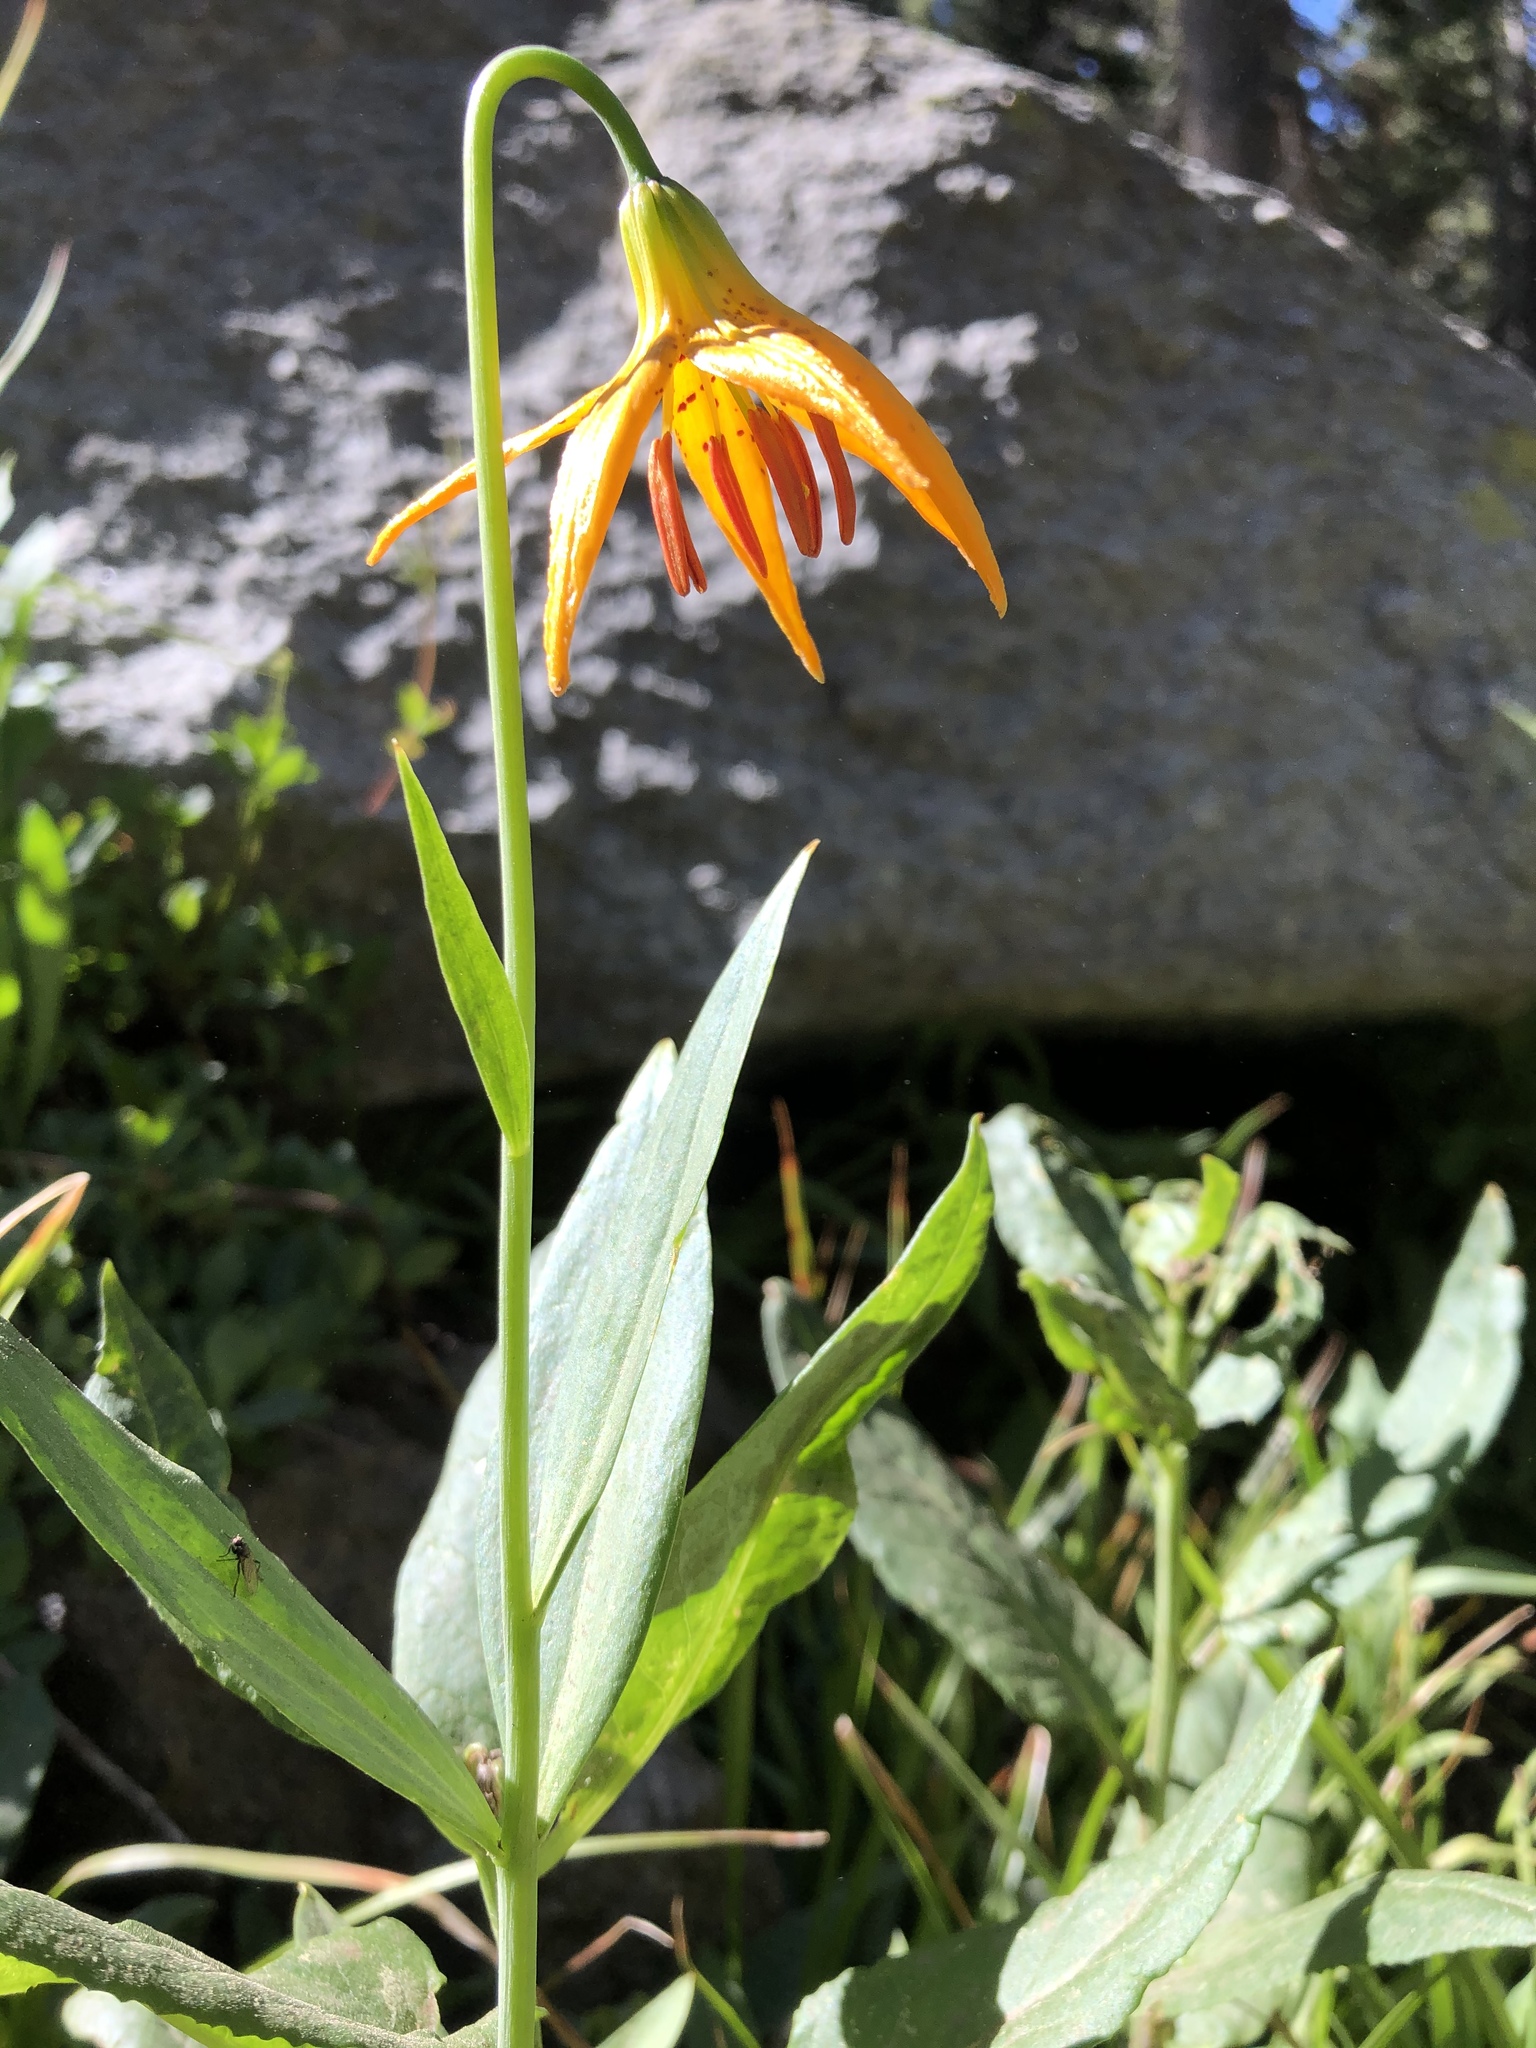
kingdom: Plantae
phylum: Tracheophyta
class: Liliopsida
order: Liliales
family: Liliaceae
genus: Lilium
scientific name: Lilium kelleyanum
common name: Kelley's lily
